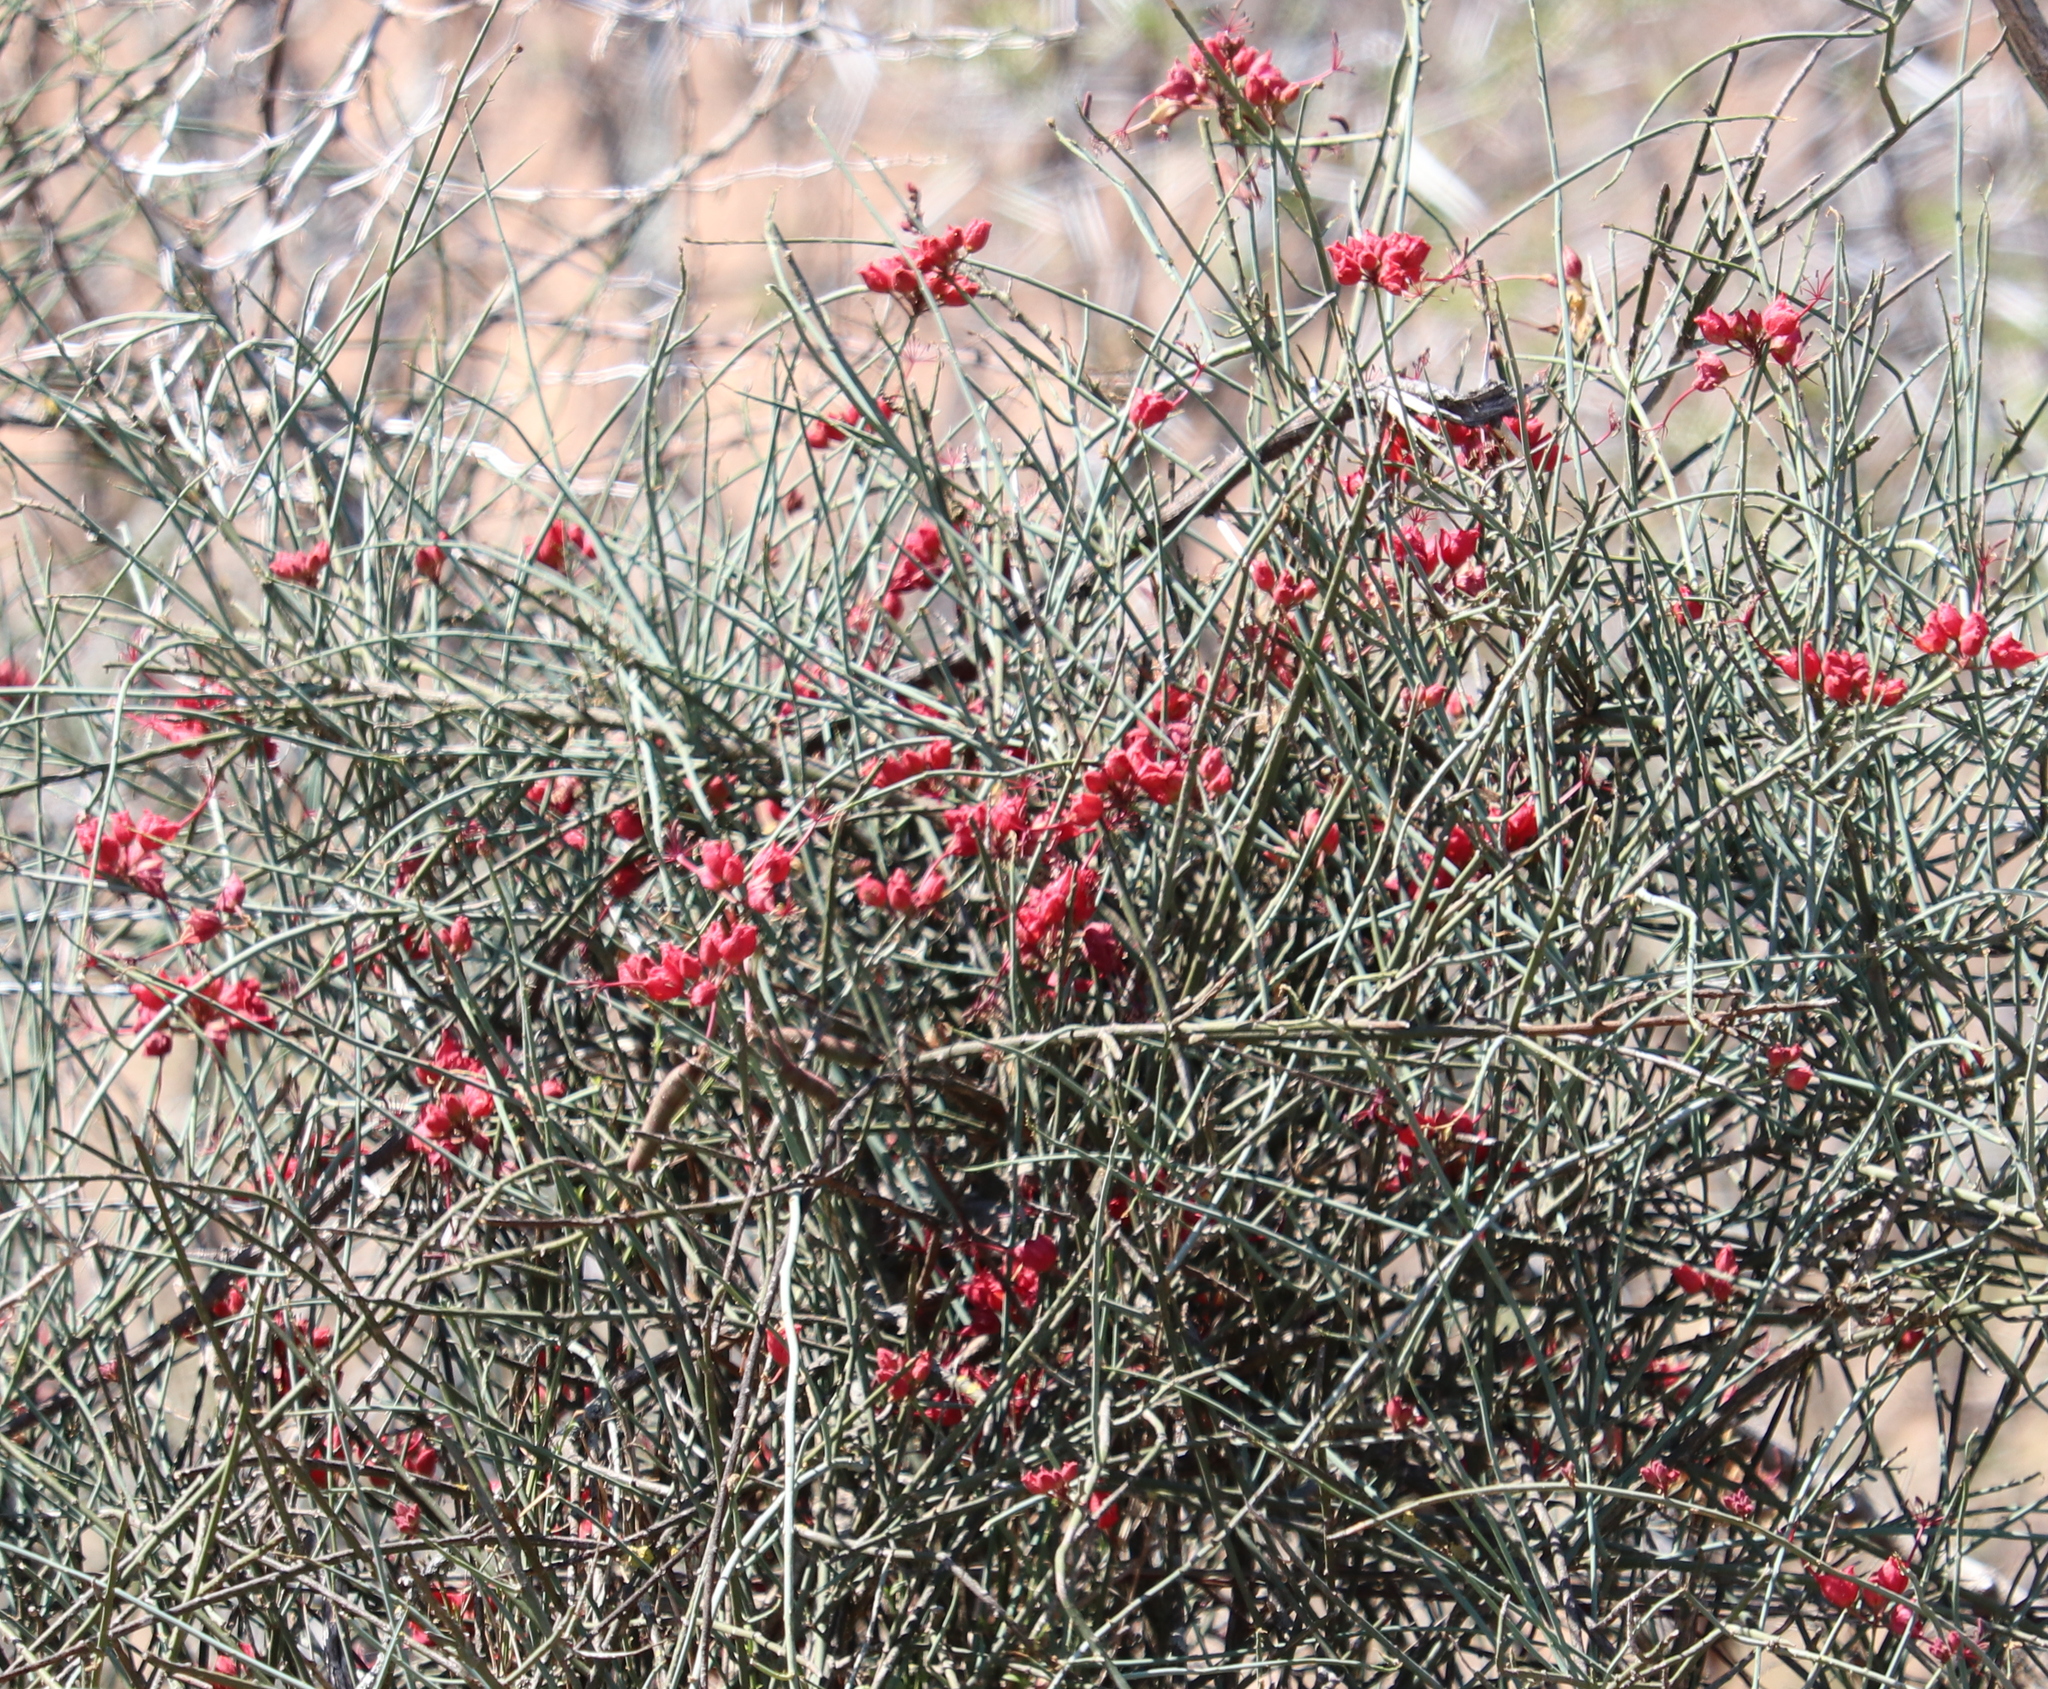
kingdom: Plantae
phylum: Tracheophyta
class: Magnoliopsida
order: Brassicales
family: Capparaceae
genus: Cadaba
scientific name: Cadaba aphylla
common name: Black storm
